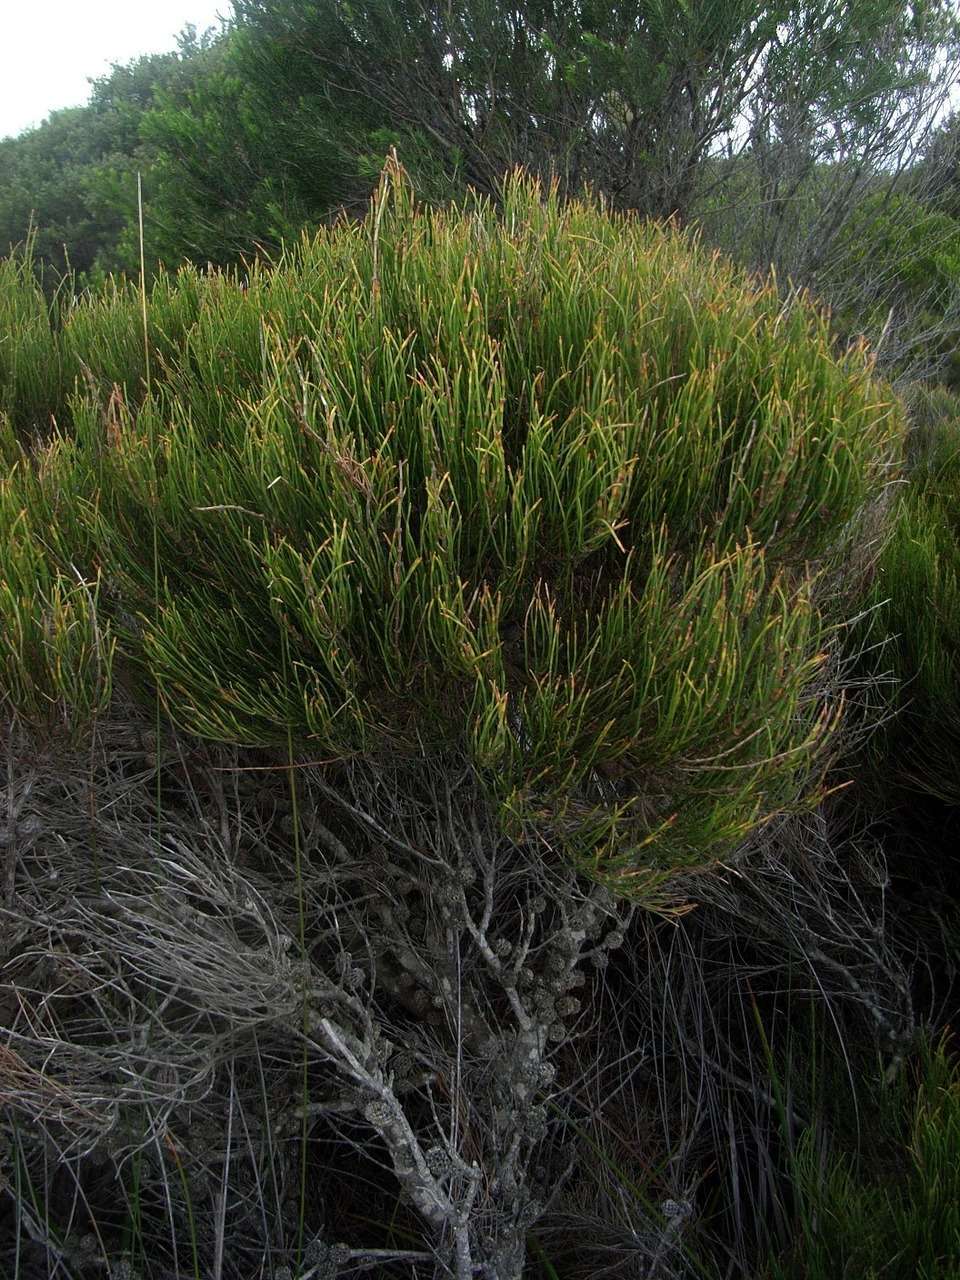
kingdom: Plantae
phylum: Tracheophyta
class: Magnoliopsida
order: Fagales
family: Casuarinaceae
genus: Allocasuarina
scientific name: Allocasuarina paludosa
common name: Scrub she-oak
